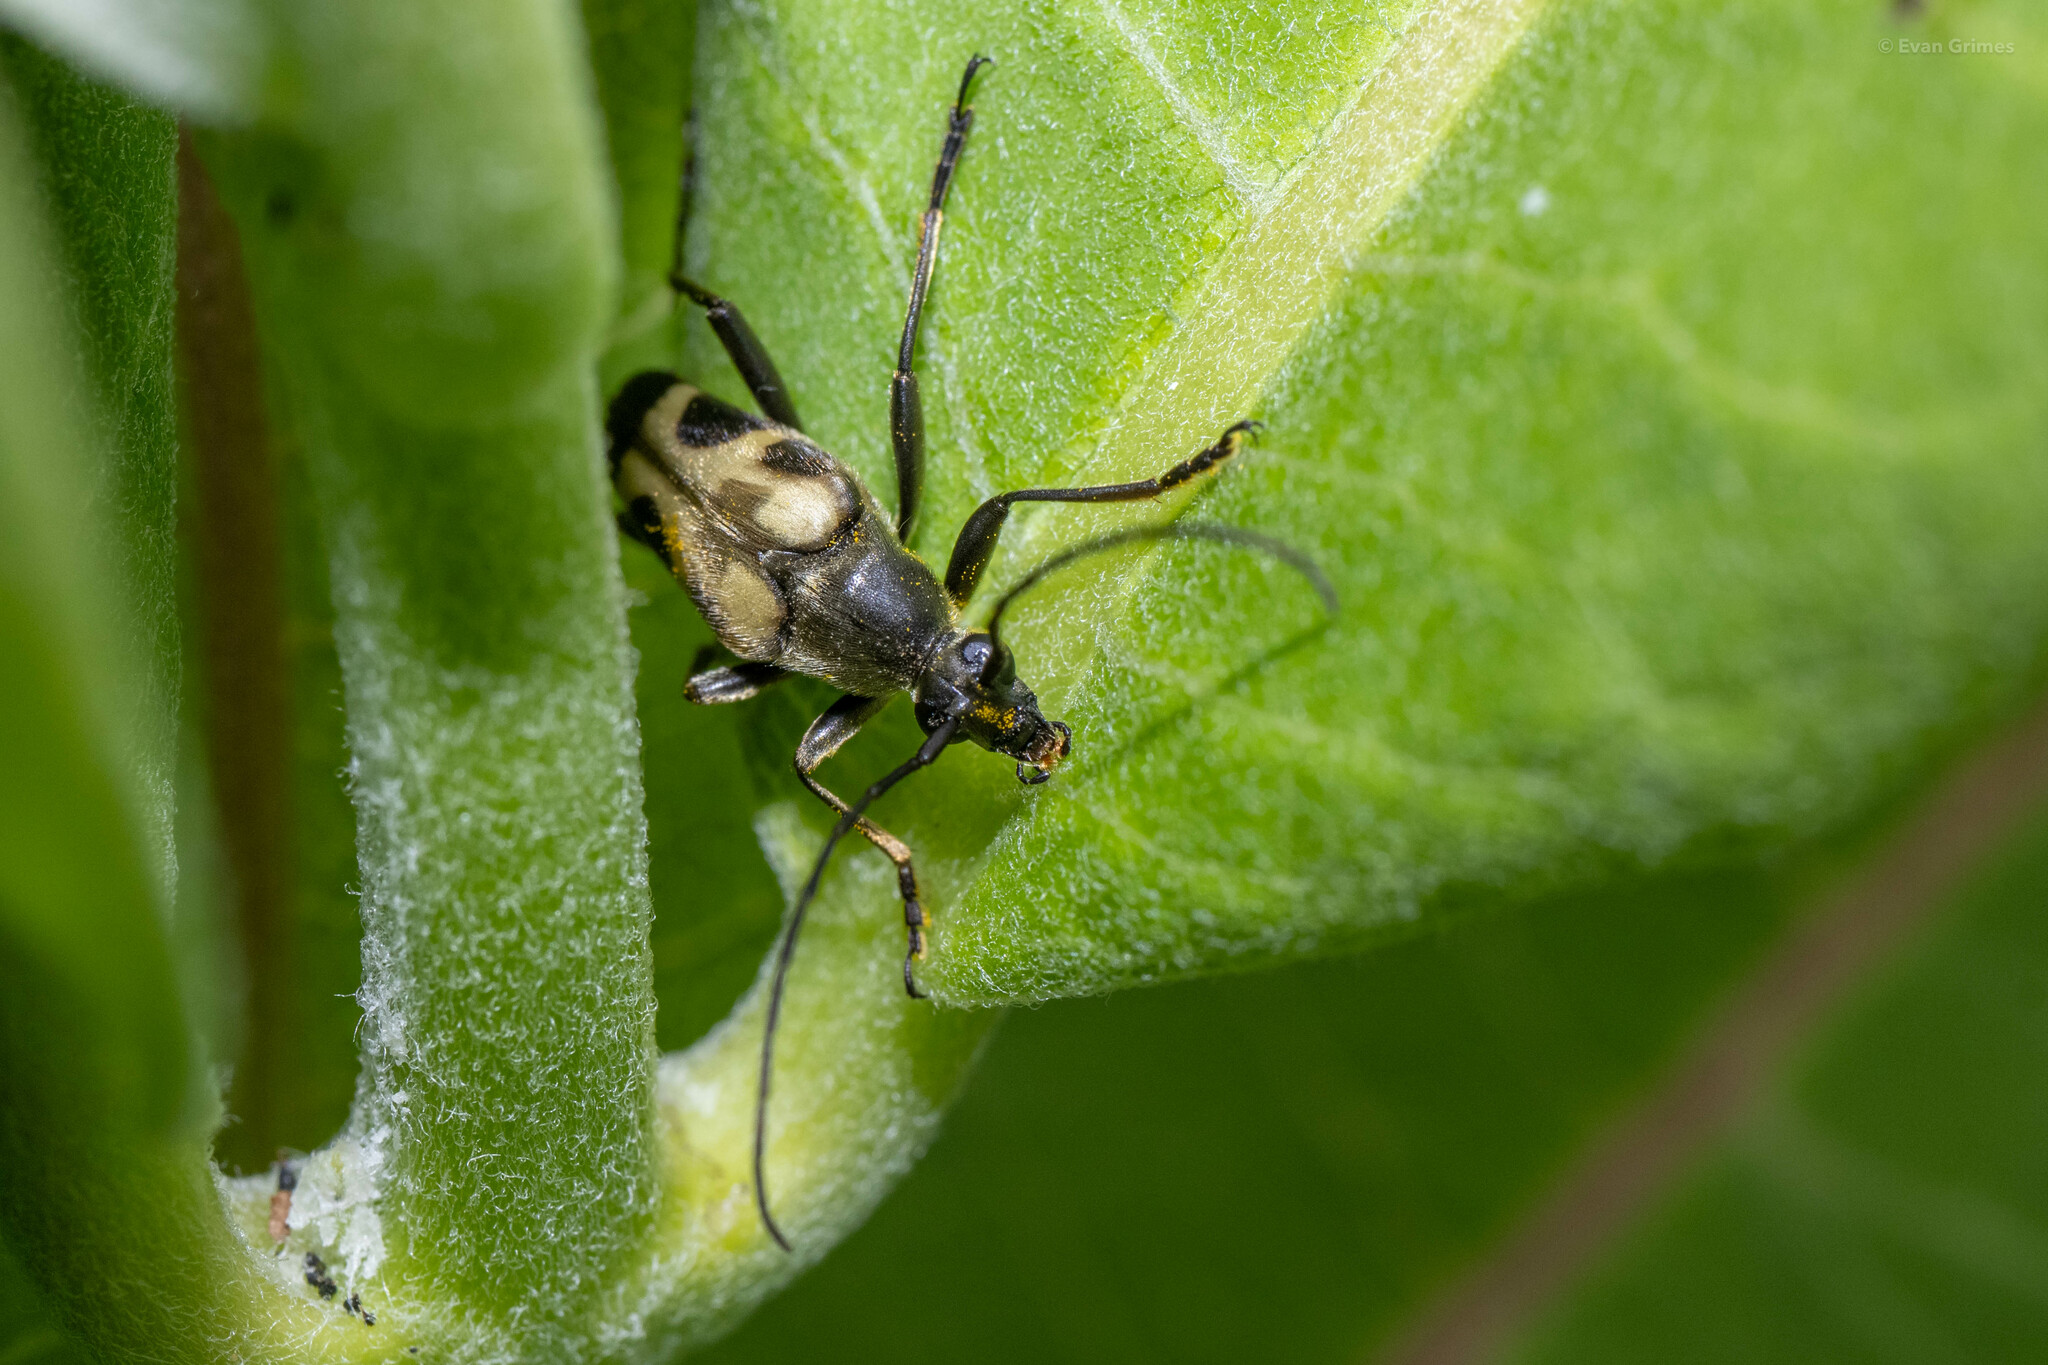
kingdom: Animalia
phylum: Arthropoda
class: Insecta
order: Coleoptera
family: Cerambycidae
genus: Judolia
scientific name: Judolia cordifera
